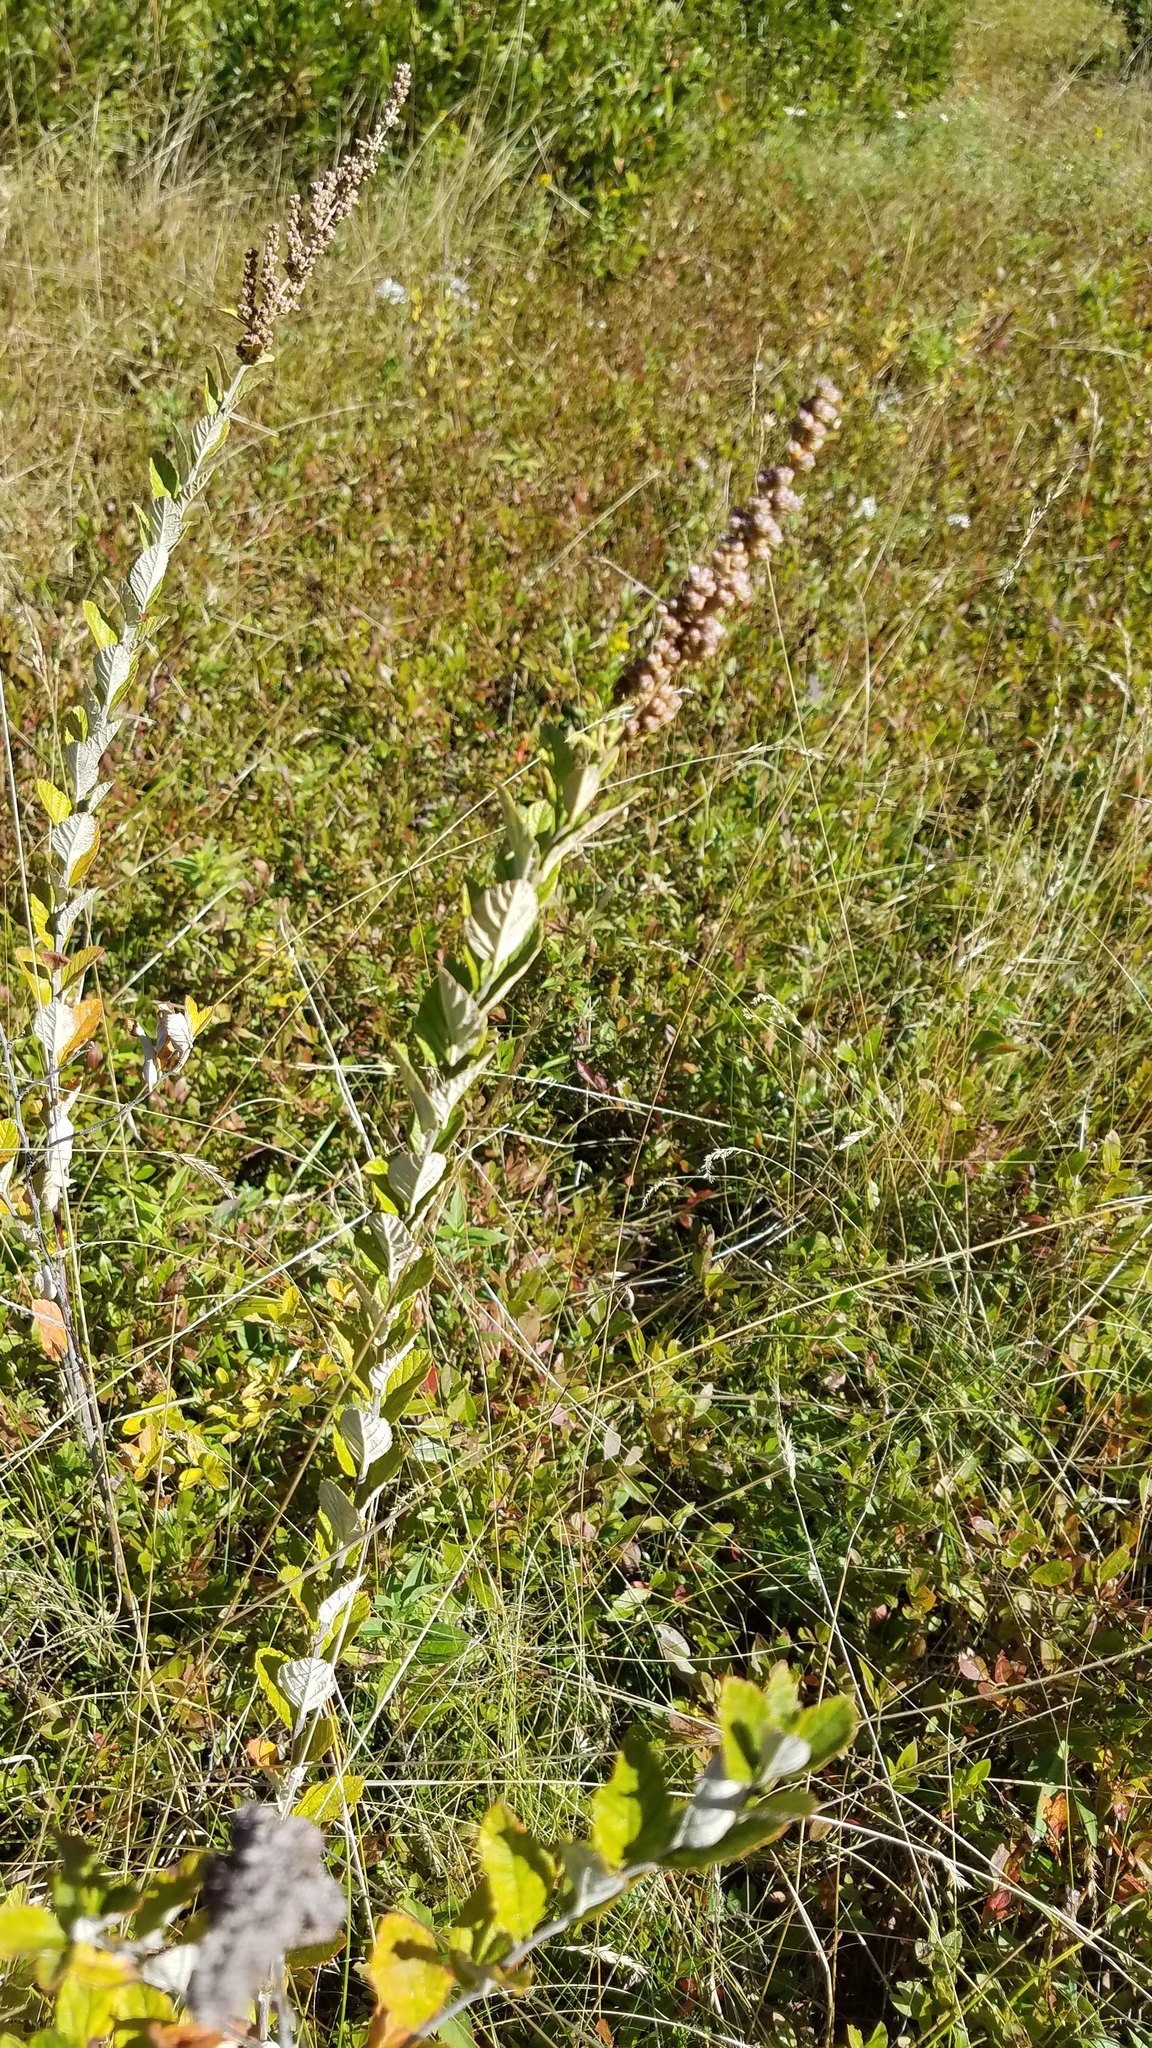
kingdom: Plantae
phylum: Tracheophyta
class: Magnoliopsida
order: Rosales
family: Rosaceae
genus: Spiraea
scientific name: Spiraea tomentosa
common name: Hardhack
